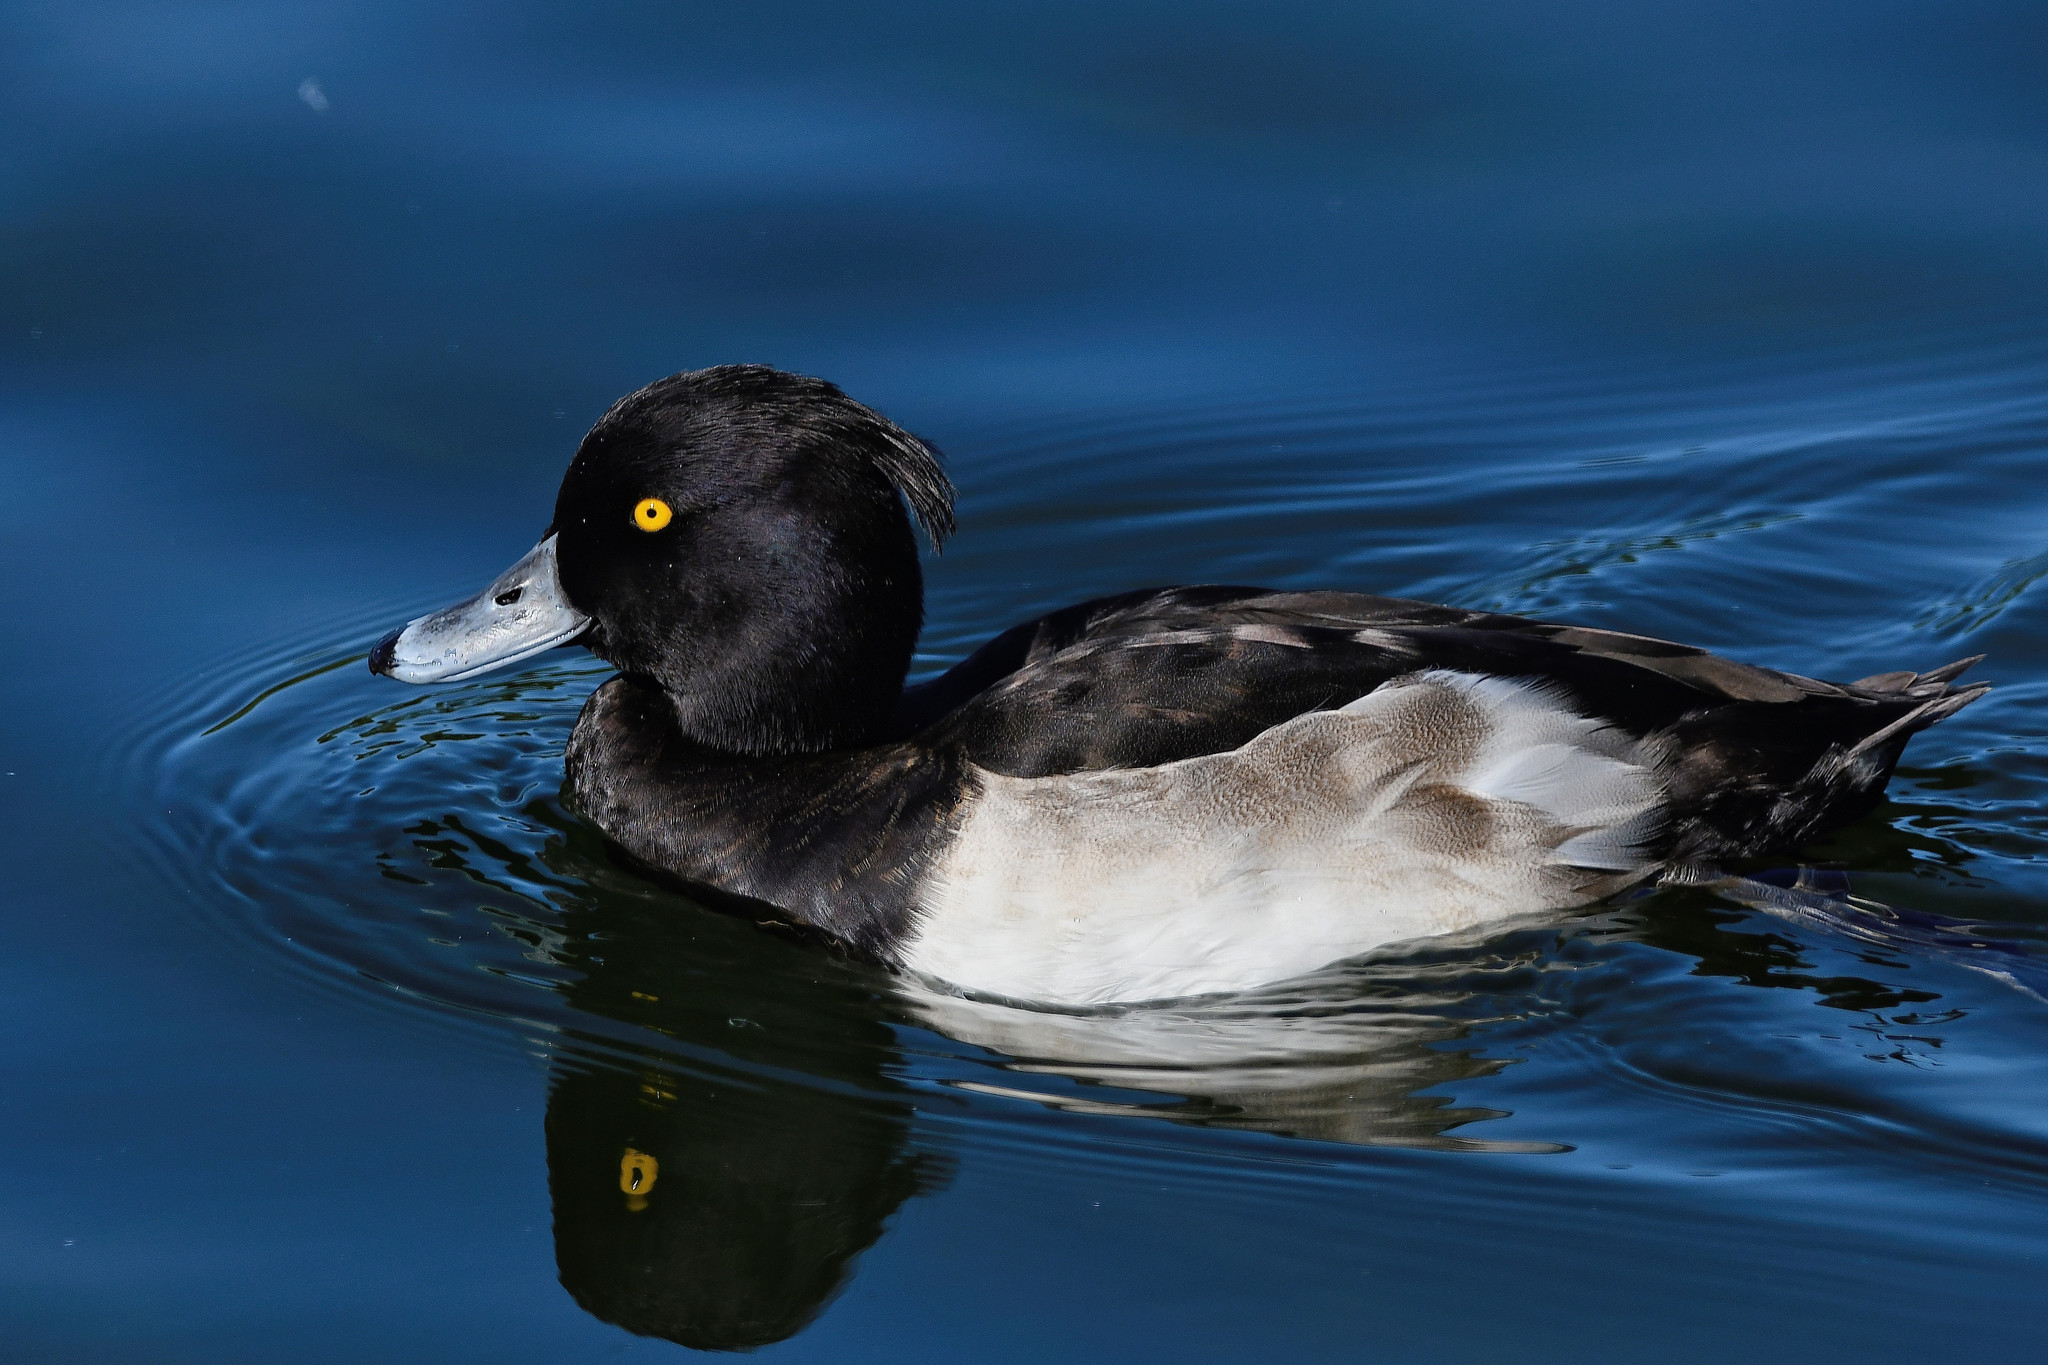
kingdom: Animalia
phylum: Chordata
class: Aves
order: Anseriformes
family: Anatidae
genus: Aythya
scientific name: Aythya fuligula
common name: Tufted duck
